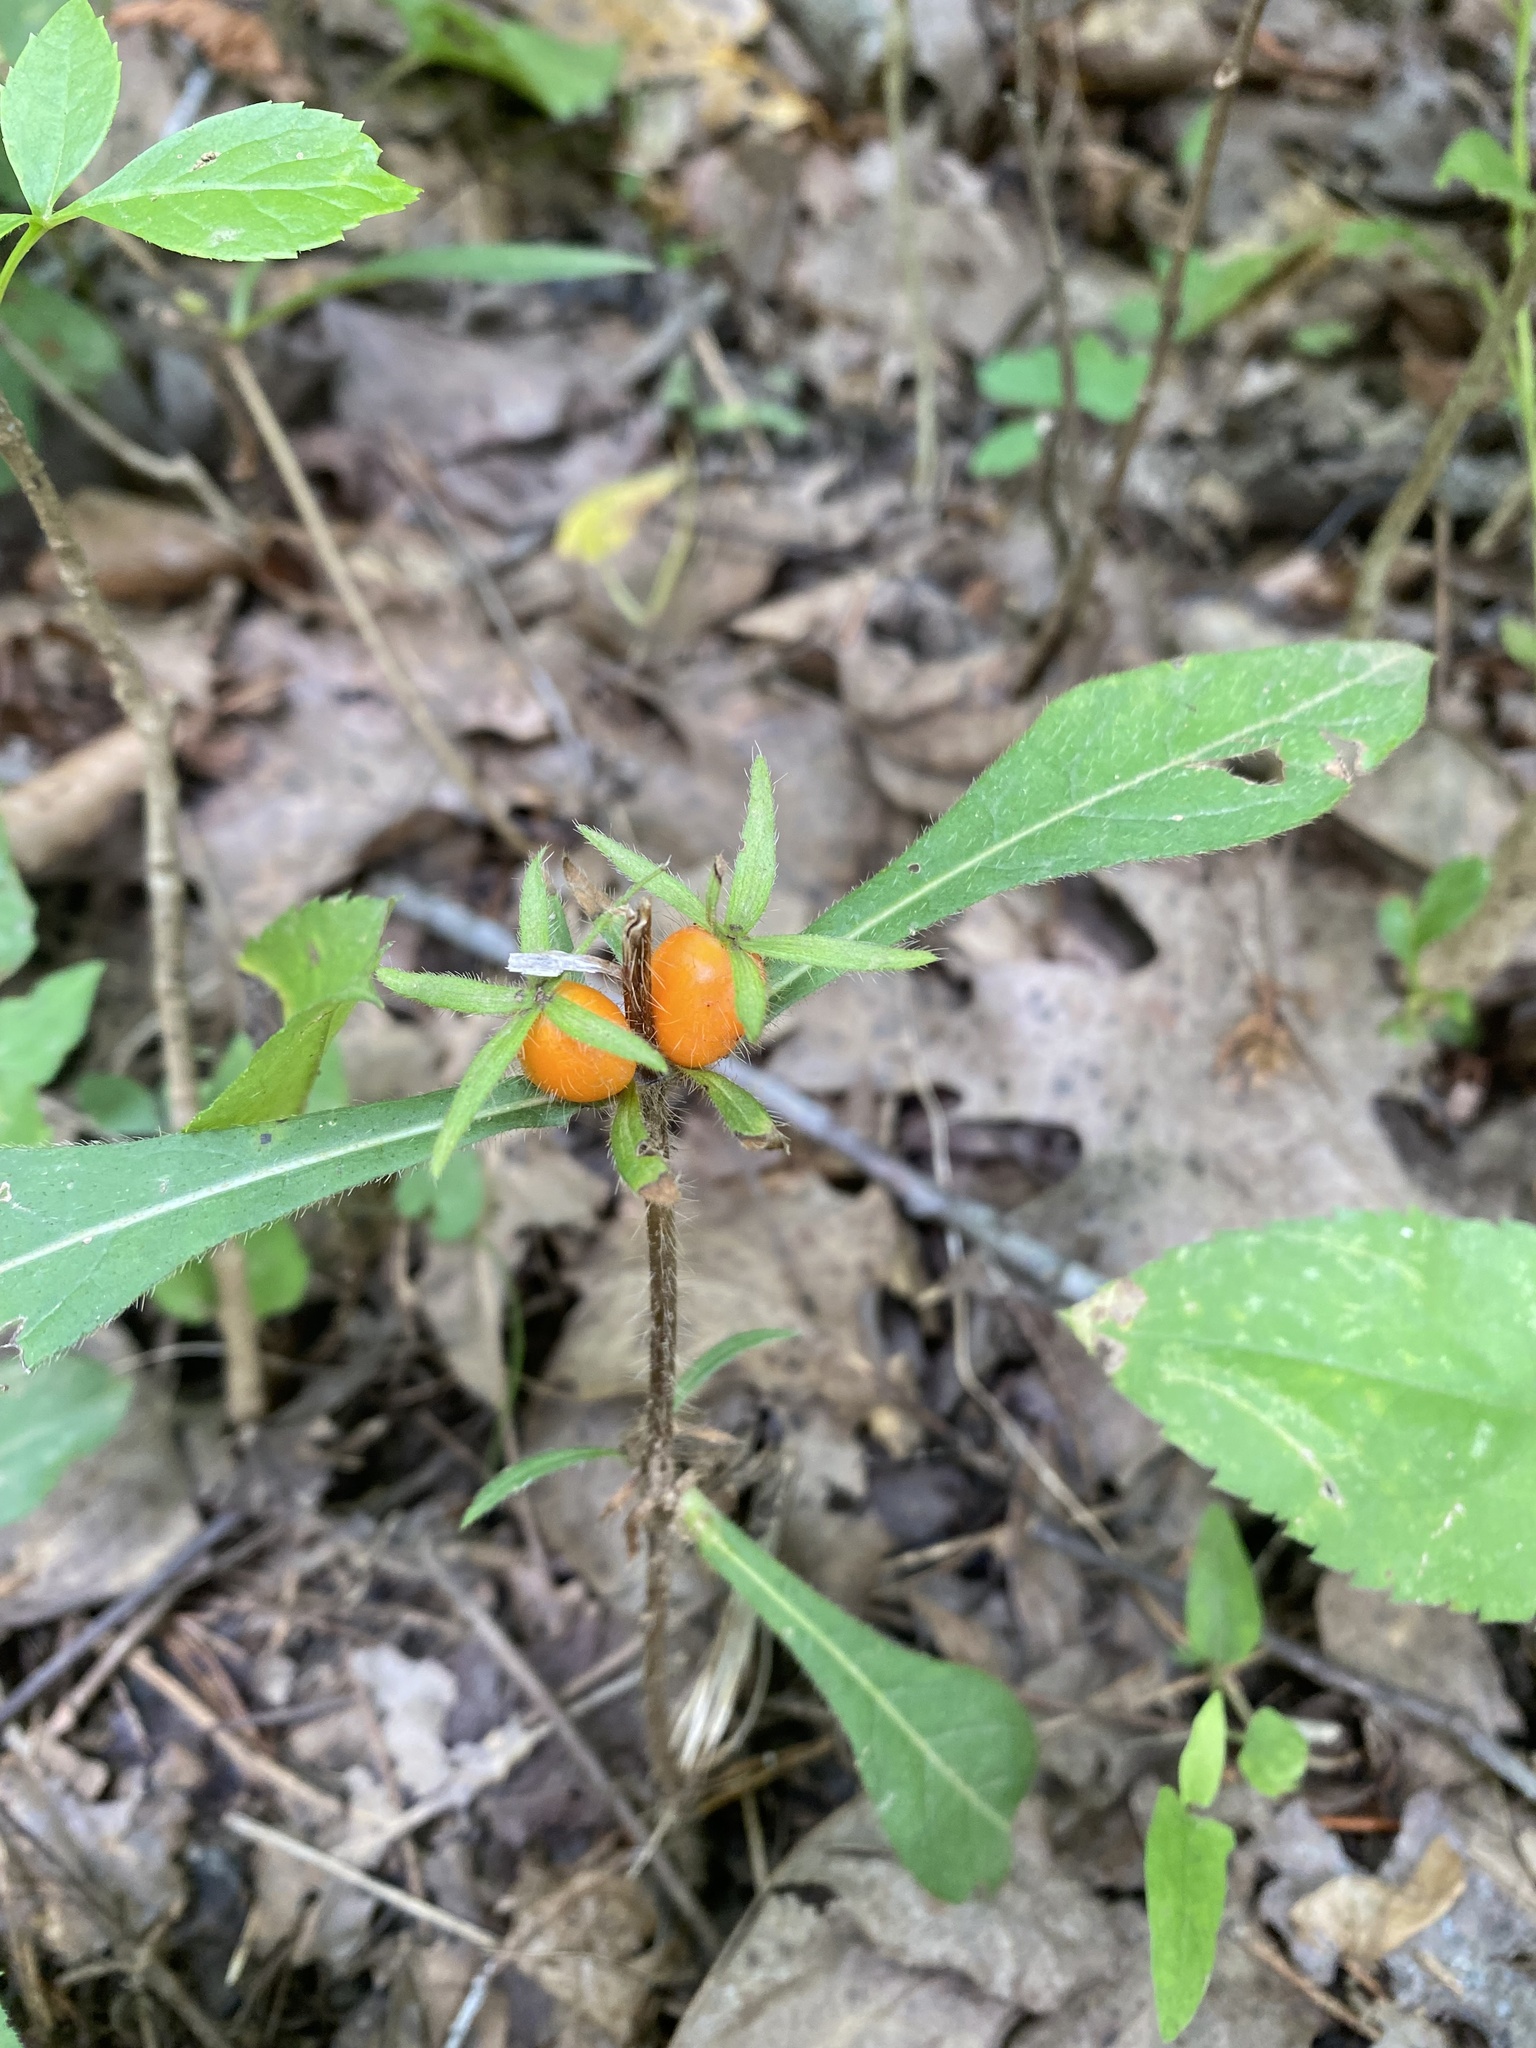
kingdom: Plantae
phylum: Tracheophyta
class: Magnoliopsida
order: Dipsacales
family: Caprifoliaceae
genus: Triosteum
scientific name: Triosteum angustifolium
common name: Narrow-leaved horse-gentian
